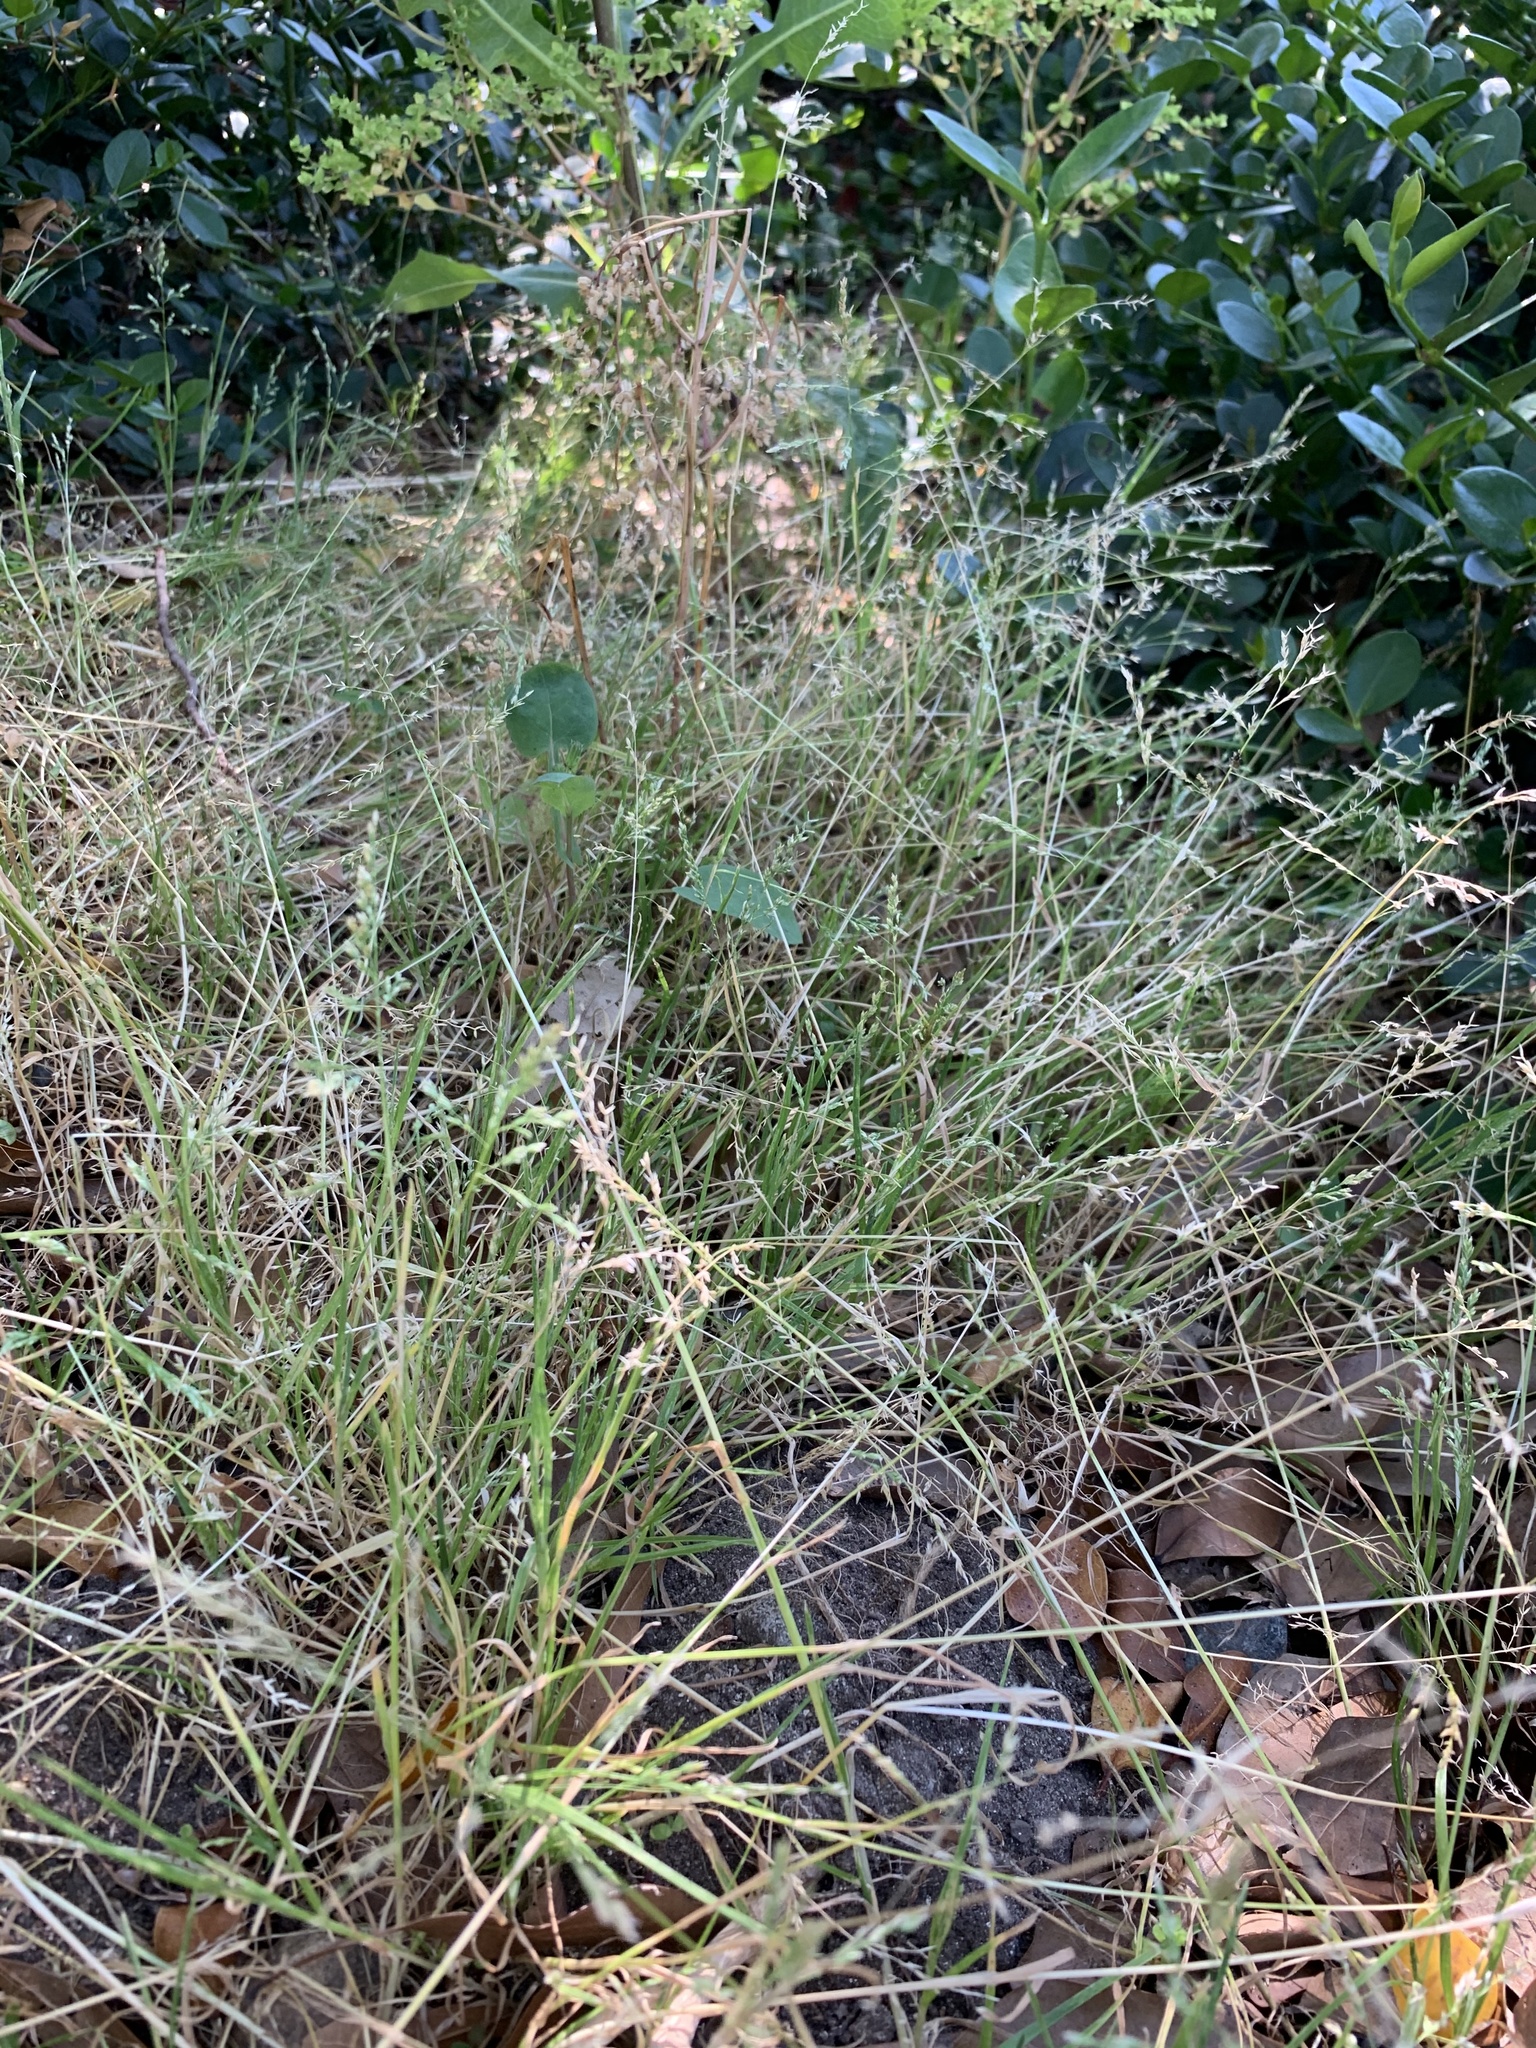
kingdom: Plantae
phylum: Tracheophyta
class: Liliopsida
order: Poales
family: Poaceae
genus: Poa
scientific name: Poa annua
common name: Annual bluegrass
